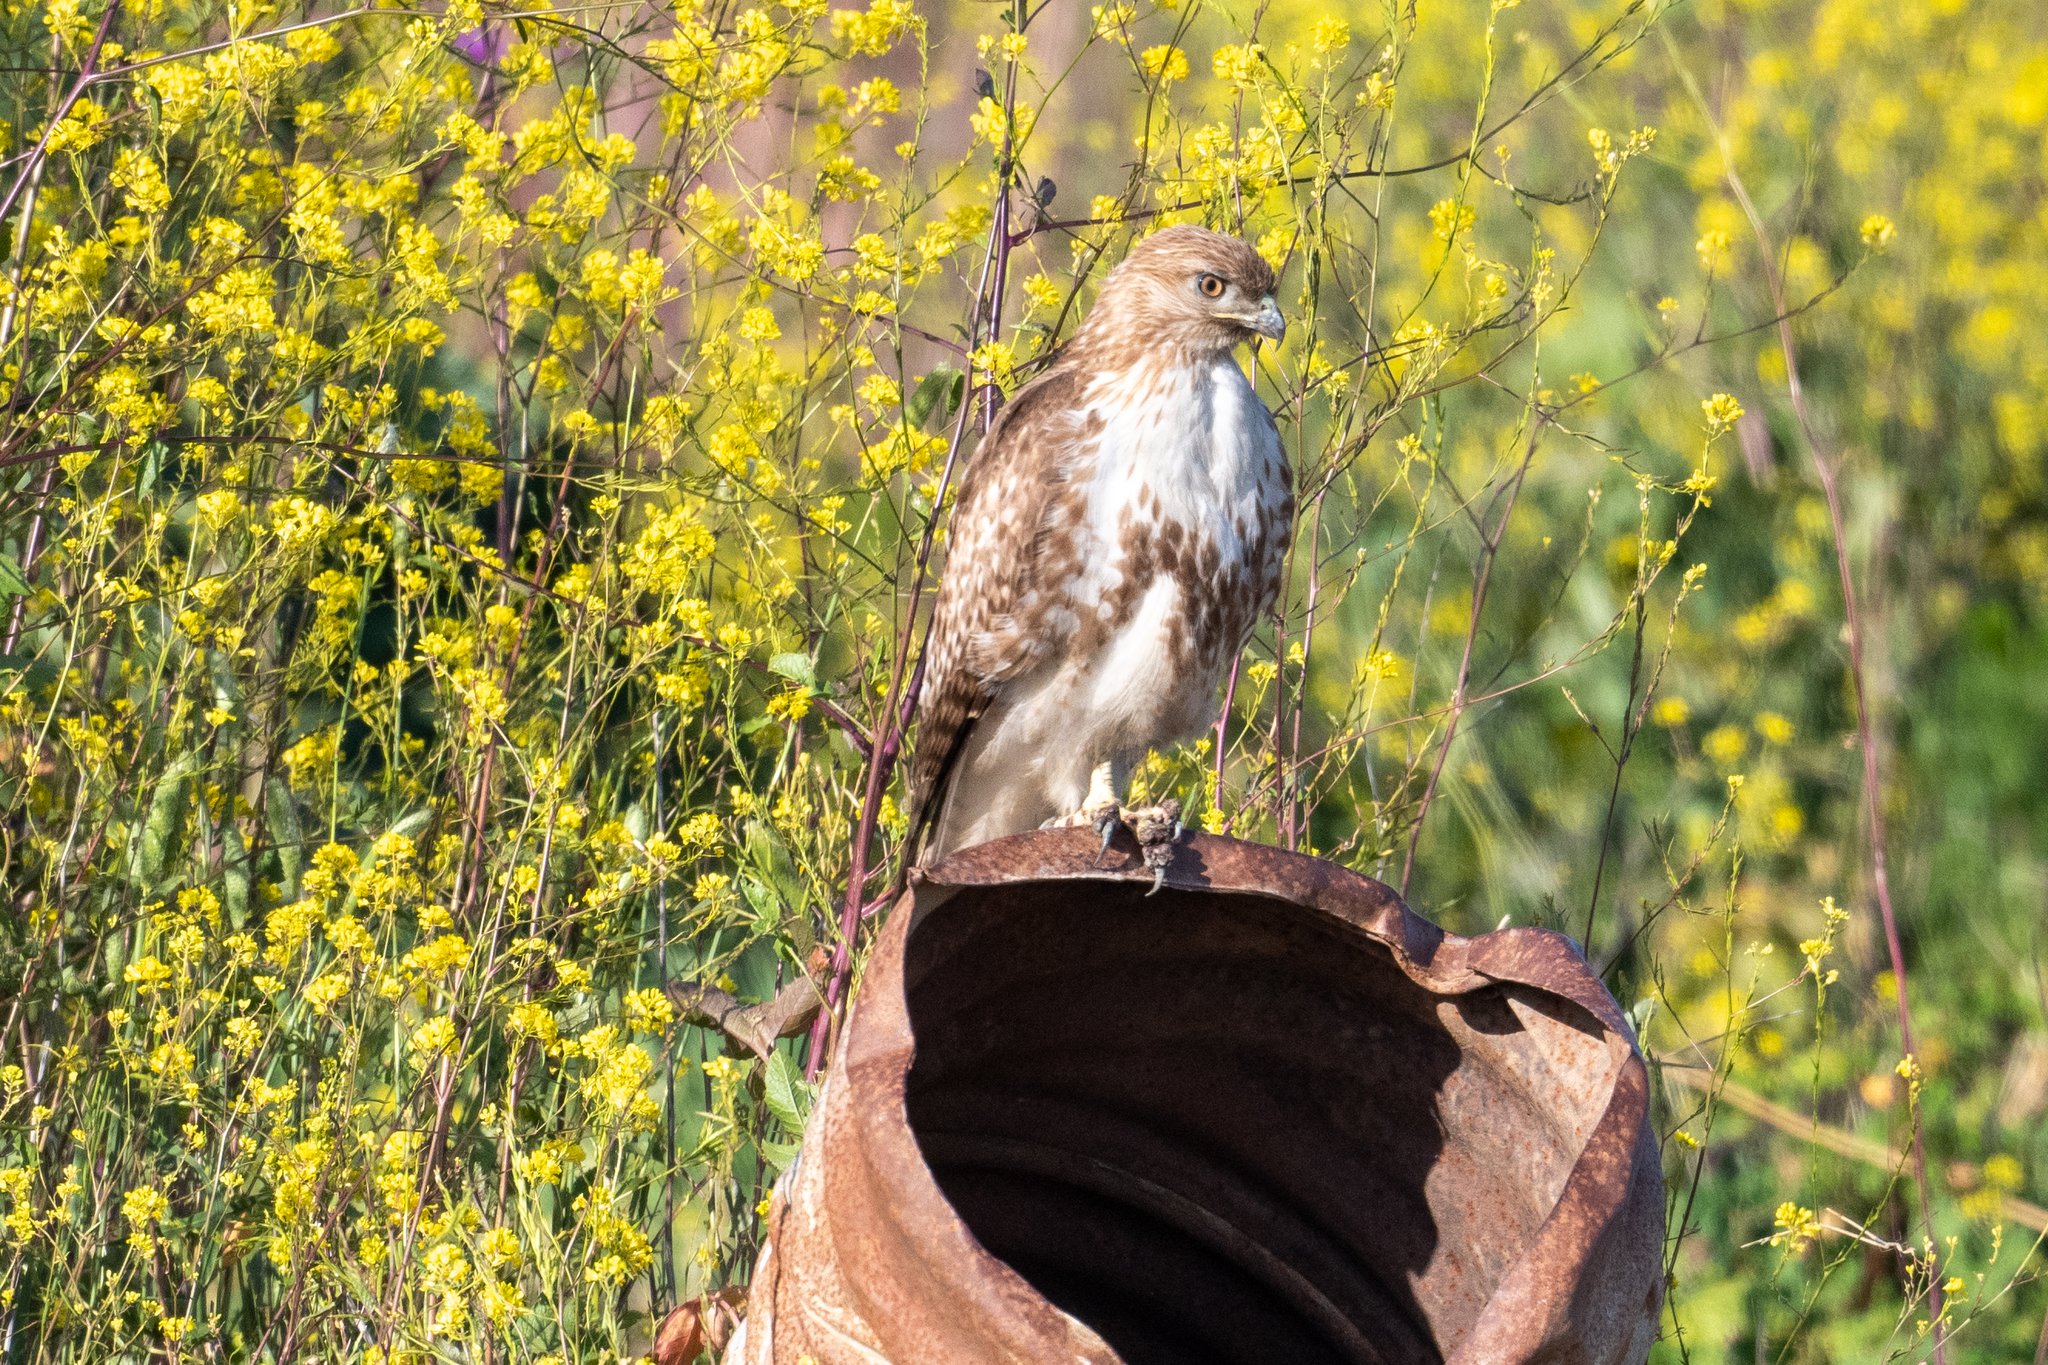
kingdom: Animalia
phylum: Chordata
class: Aves
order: Accipitriformes
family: Accipitridae
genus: Buteo
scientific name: Buteo jamaicensis
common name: Red-tailed hawk
